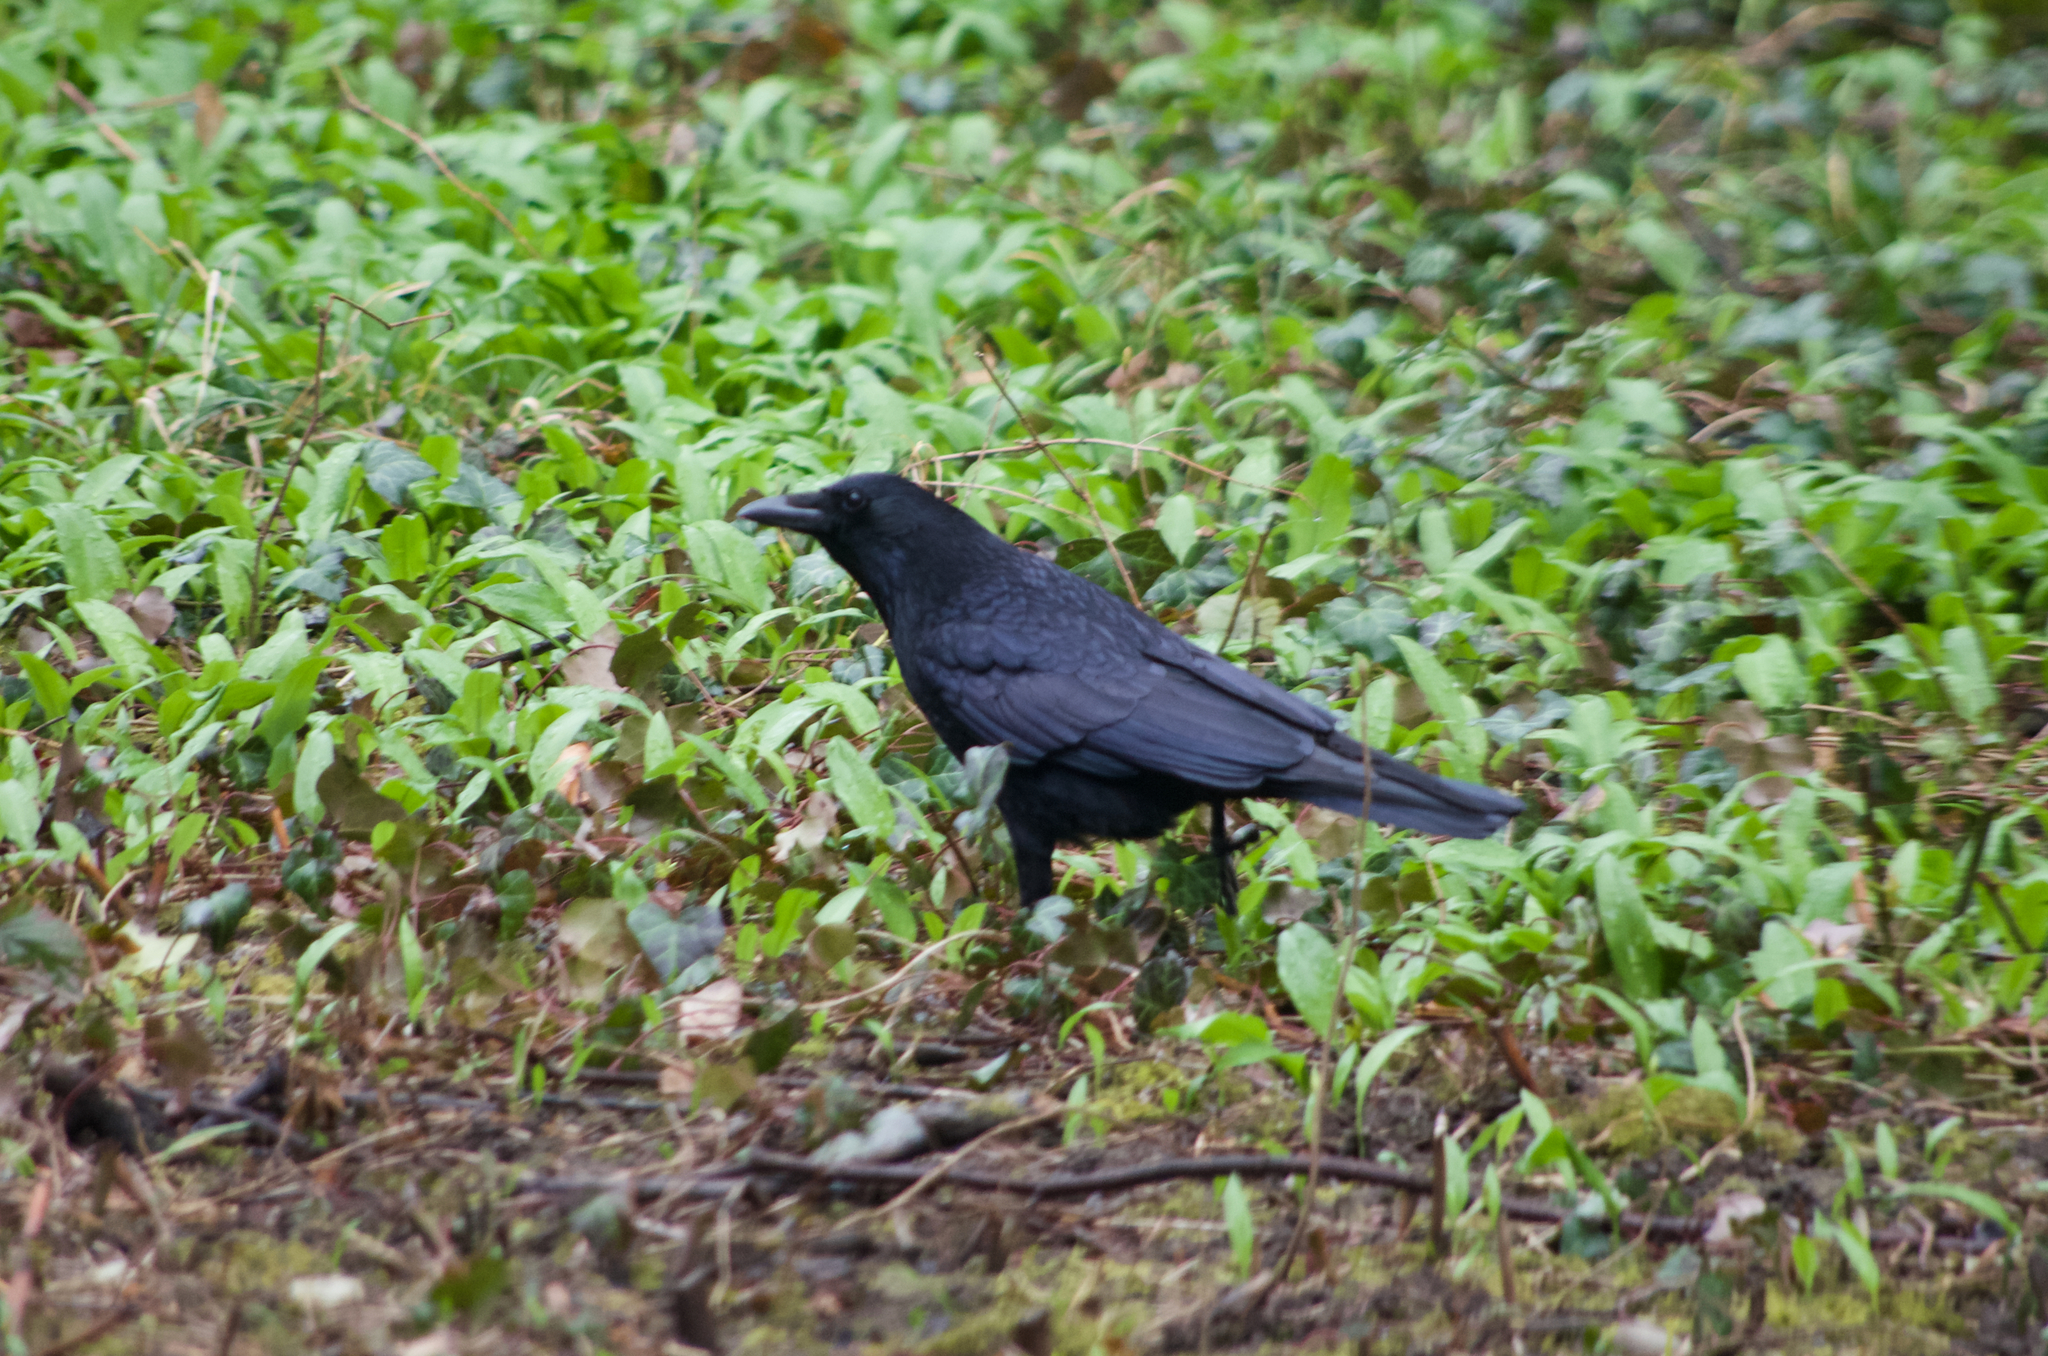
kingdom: Animalia
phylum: Chordata
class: Aves
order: Passeriformes
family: Corvidae
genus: Corvus
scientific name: Corvus corone
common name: Carrion crow
